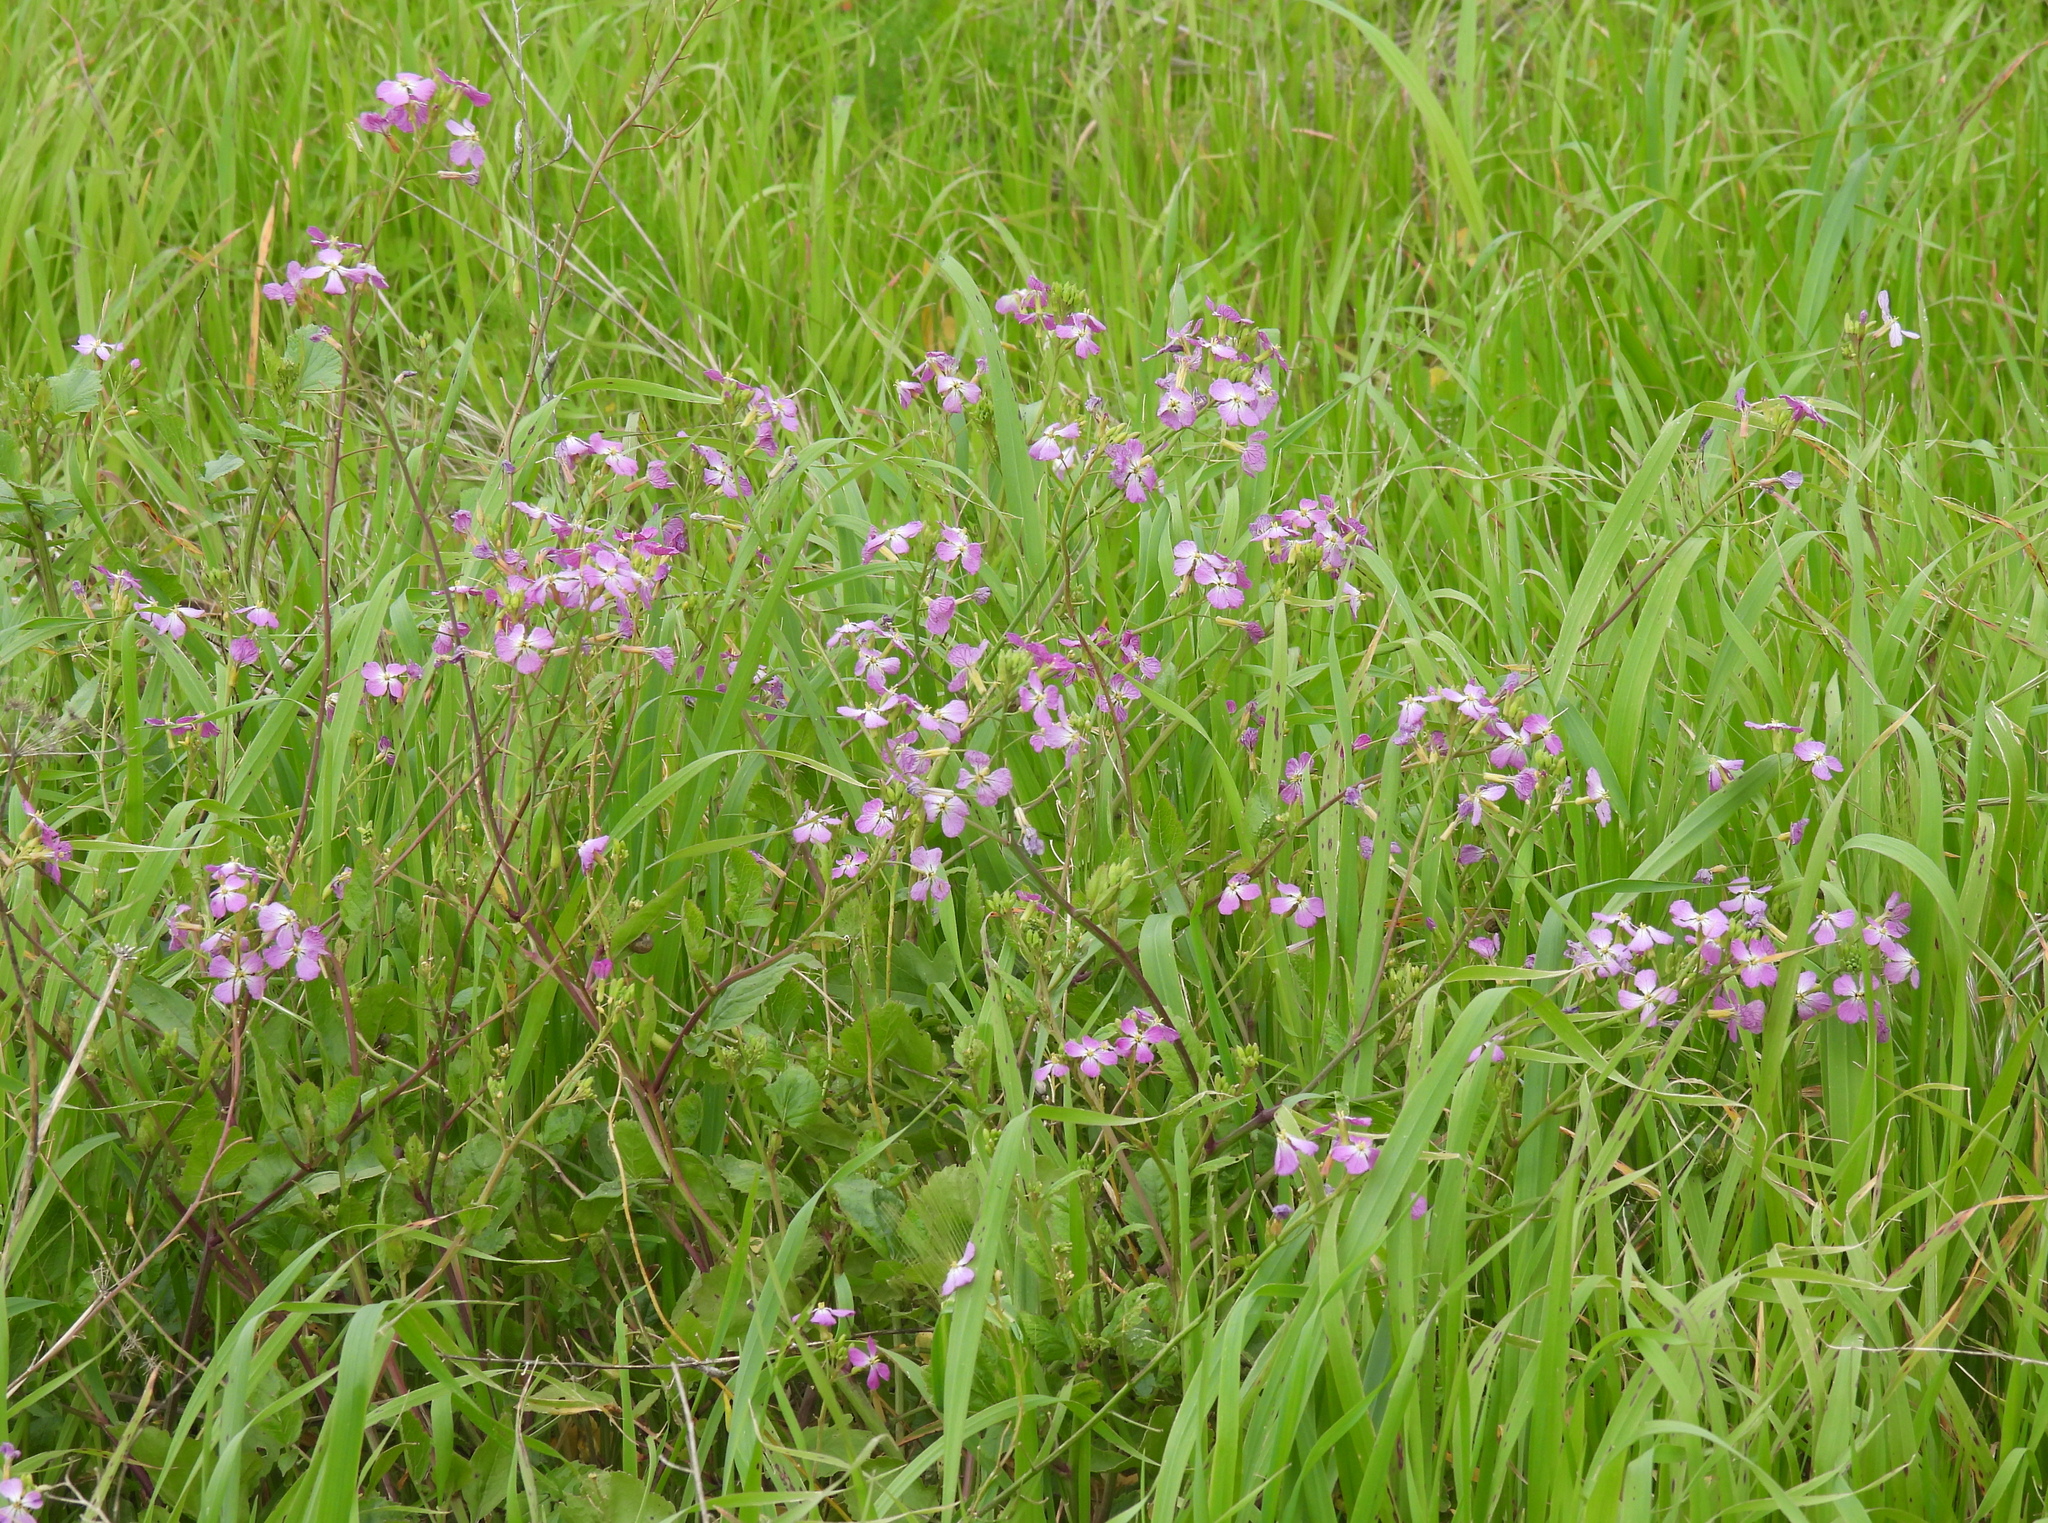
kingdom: Plantae
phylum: Tracheophyta
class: Magnoliopsida
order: Brassicales
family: Brassicaceae
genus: Raphanus
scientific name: Raphanus sativus
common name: Cultivated radish
